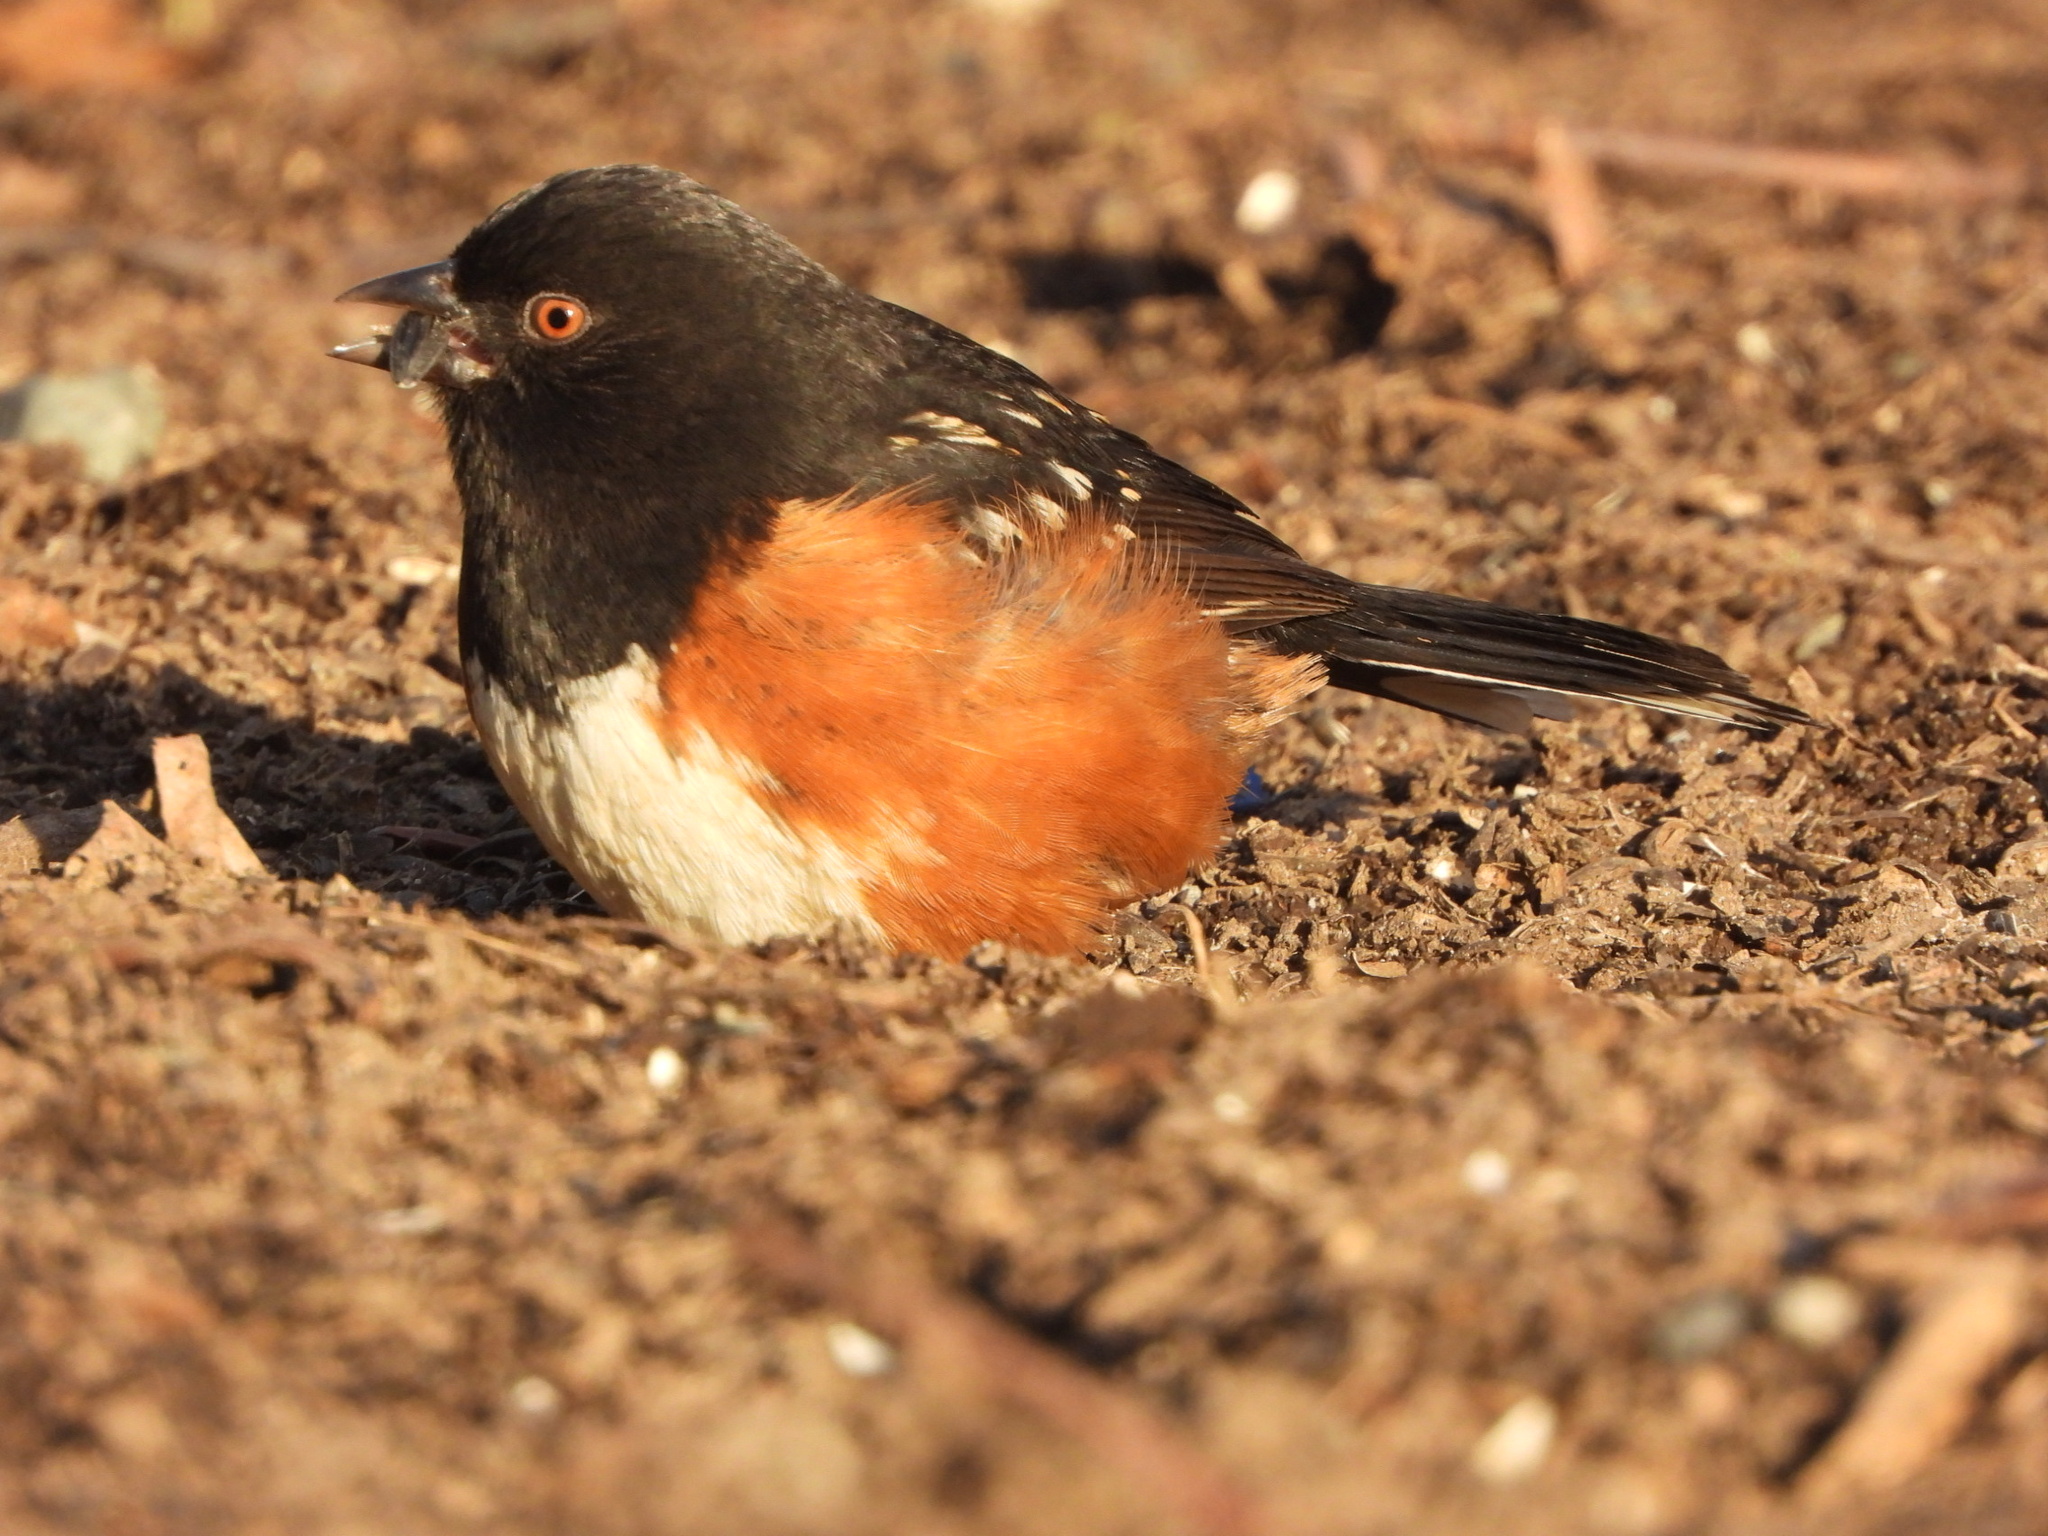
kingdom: Animalia
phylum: Chordata
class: Aves
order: Passeriformes
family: Passerellidae
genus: Pipilo
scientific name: Pipilo maculatus
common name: Spotted towhee
